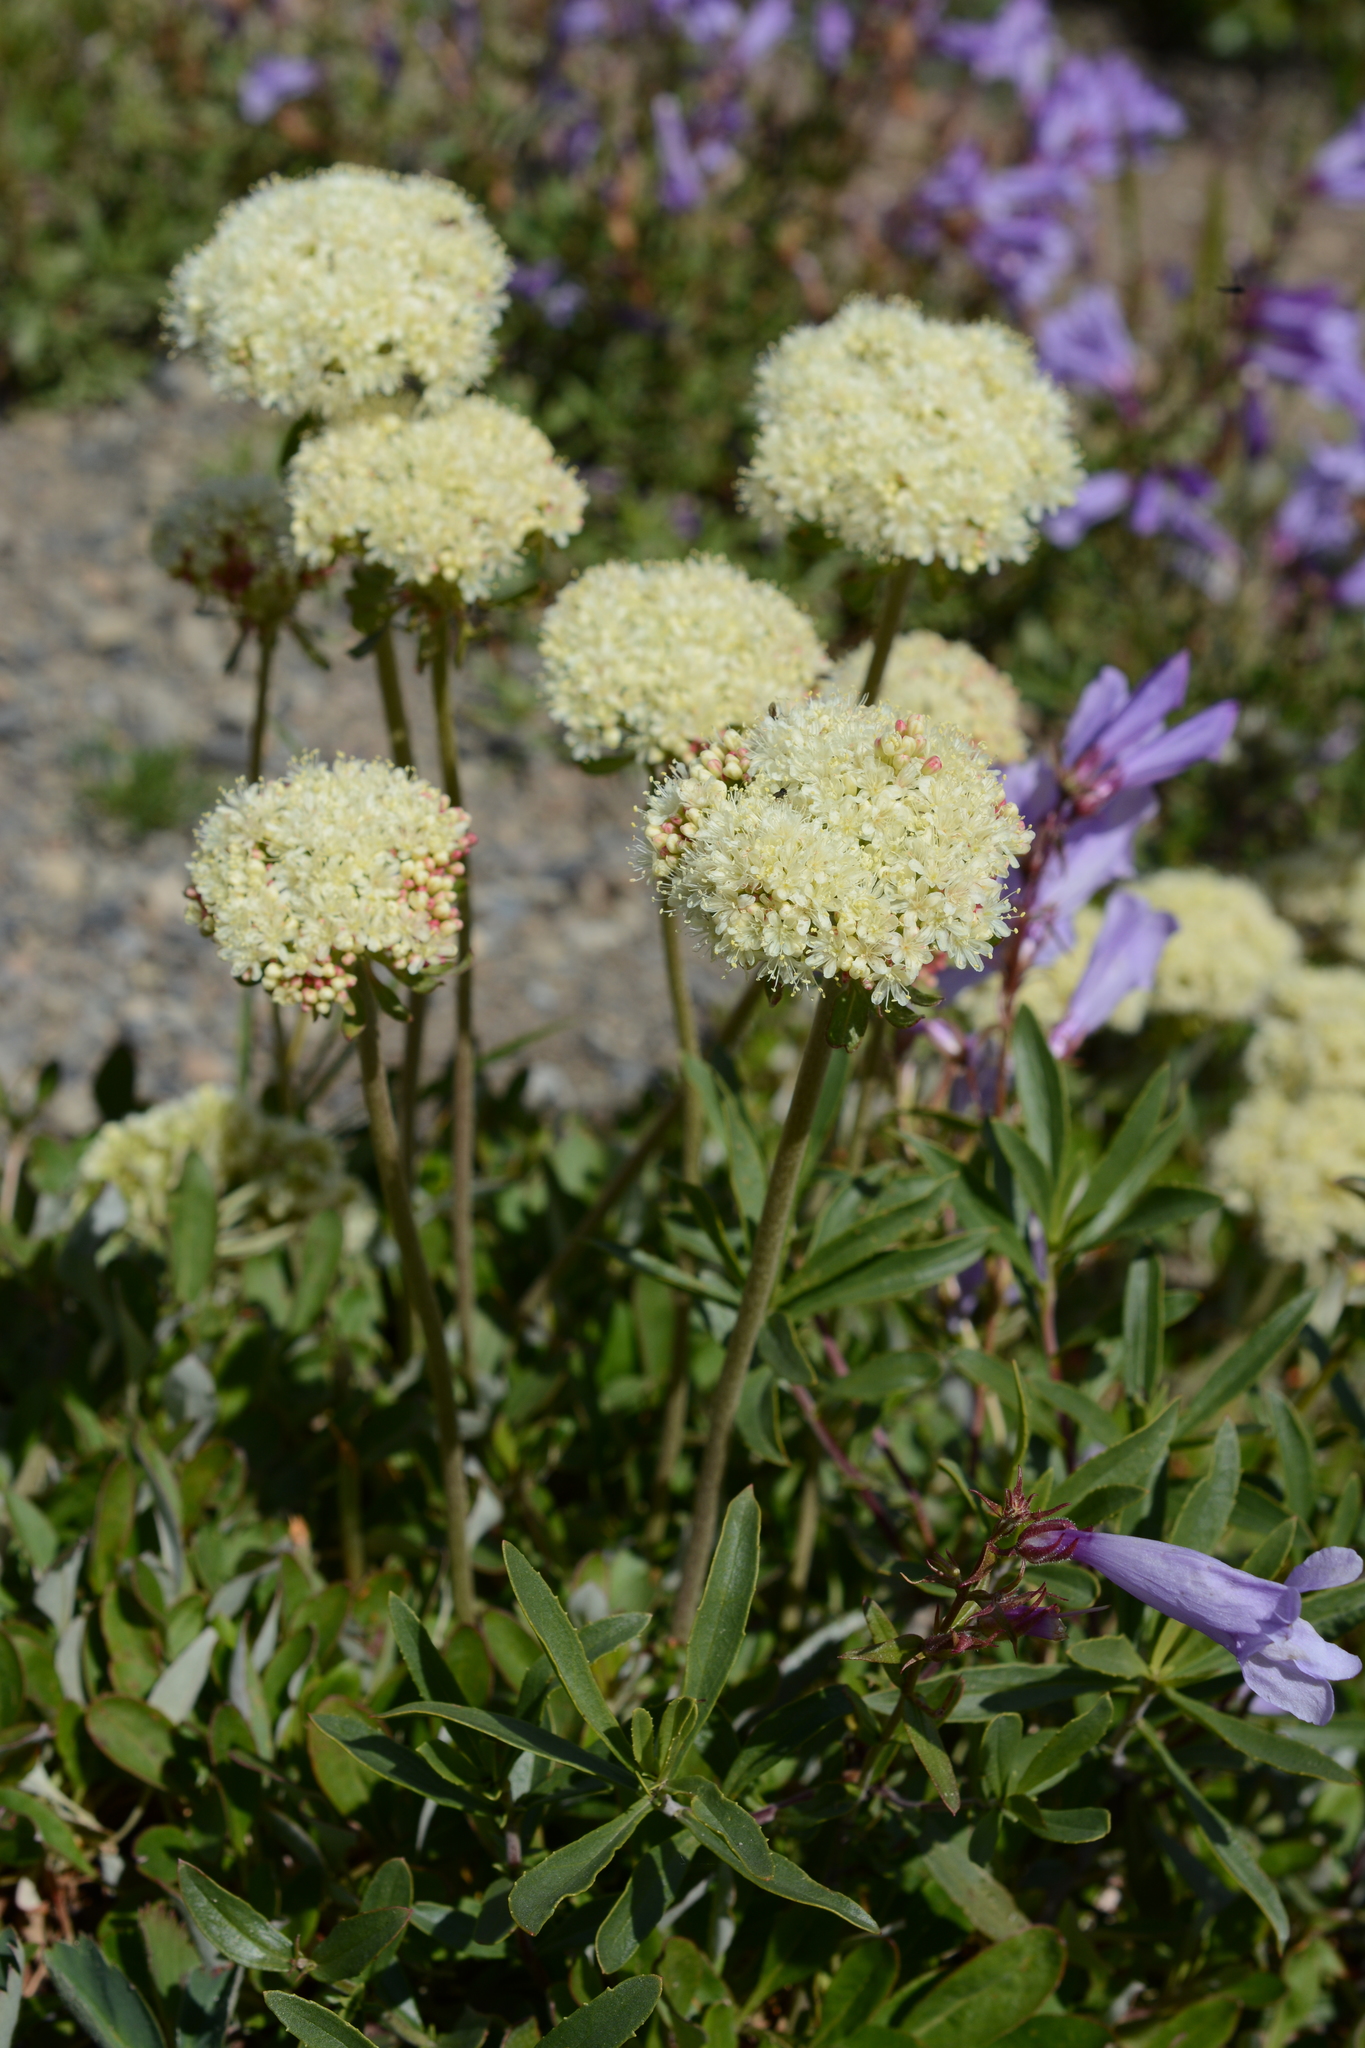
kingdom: Plantae
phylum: Tracheophyta
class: Magnoliopsida
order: Caryophyllales
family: Polygonaceae
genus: Eriogonum
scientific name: Eriogonum umbellatum
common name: Sulfur-buckwheat
